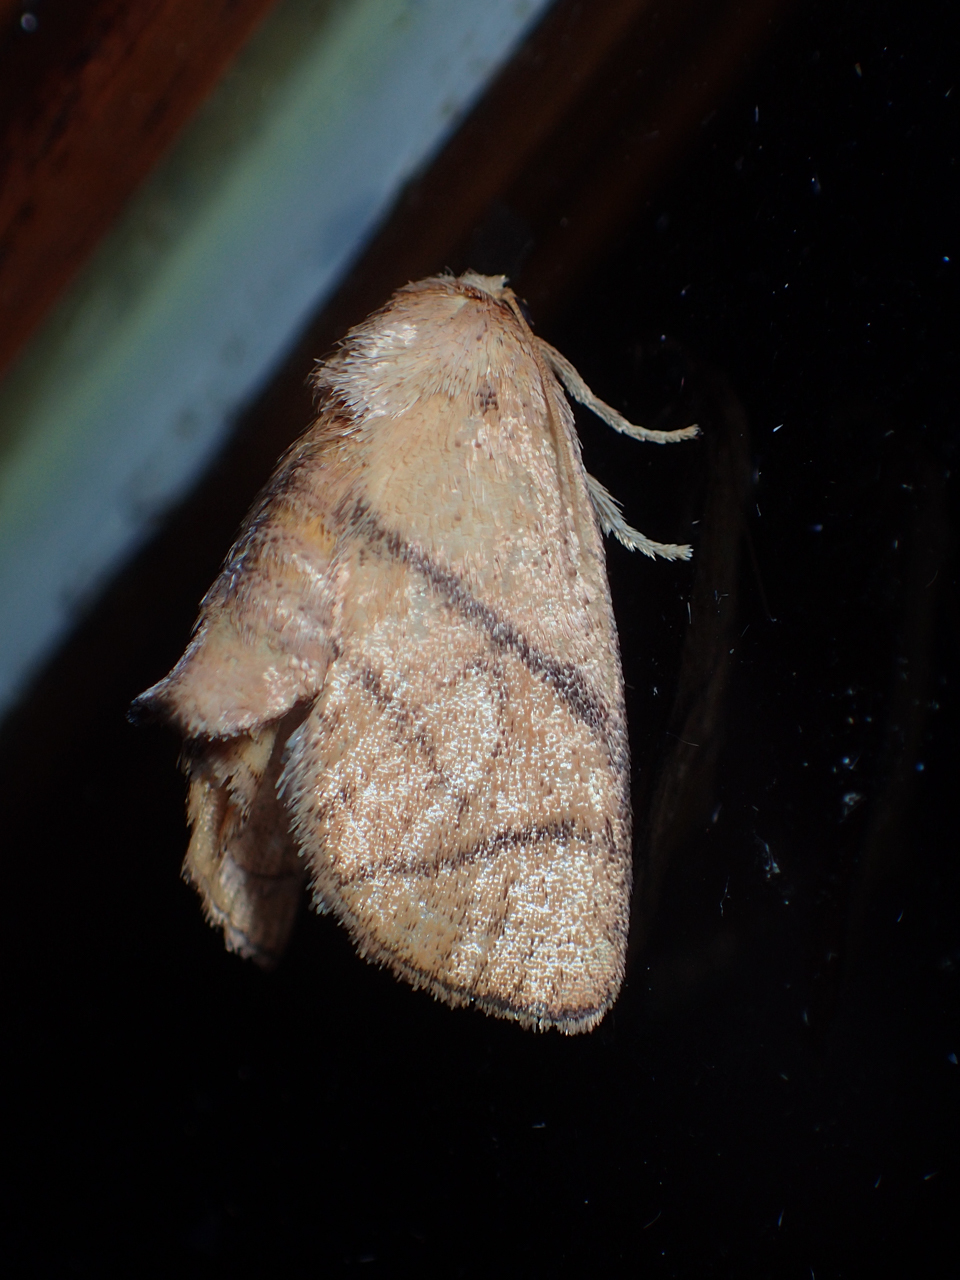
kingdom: Animalia
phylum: Arthropoda
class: Insecta
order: Lepidoptera
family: Limacodidae
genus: Apoda
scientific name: Apoda y-inversa
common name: Yellow-collared slug moth
